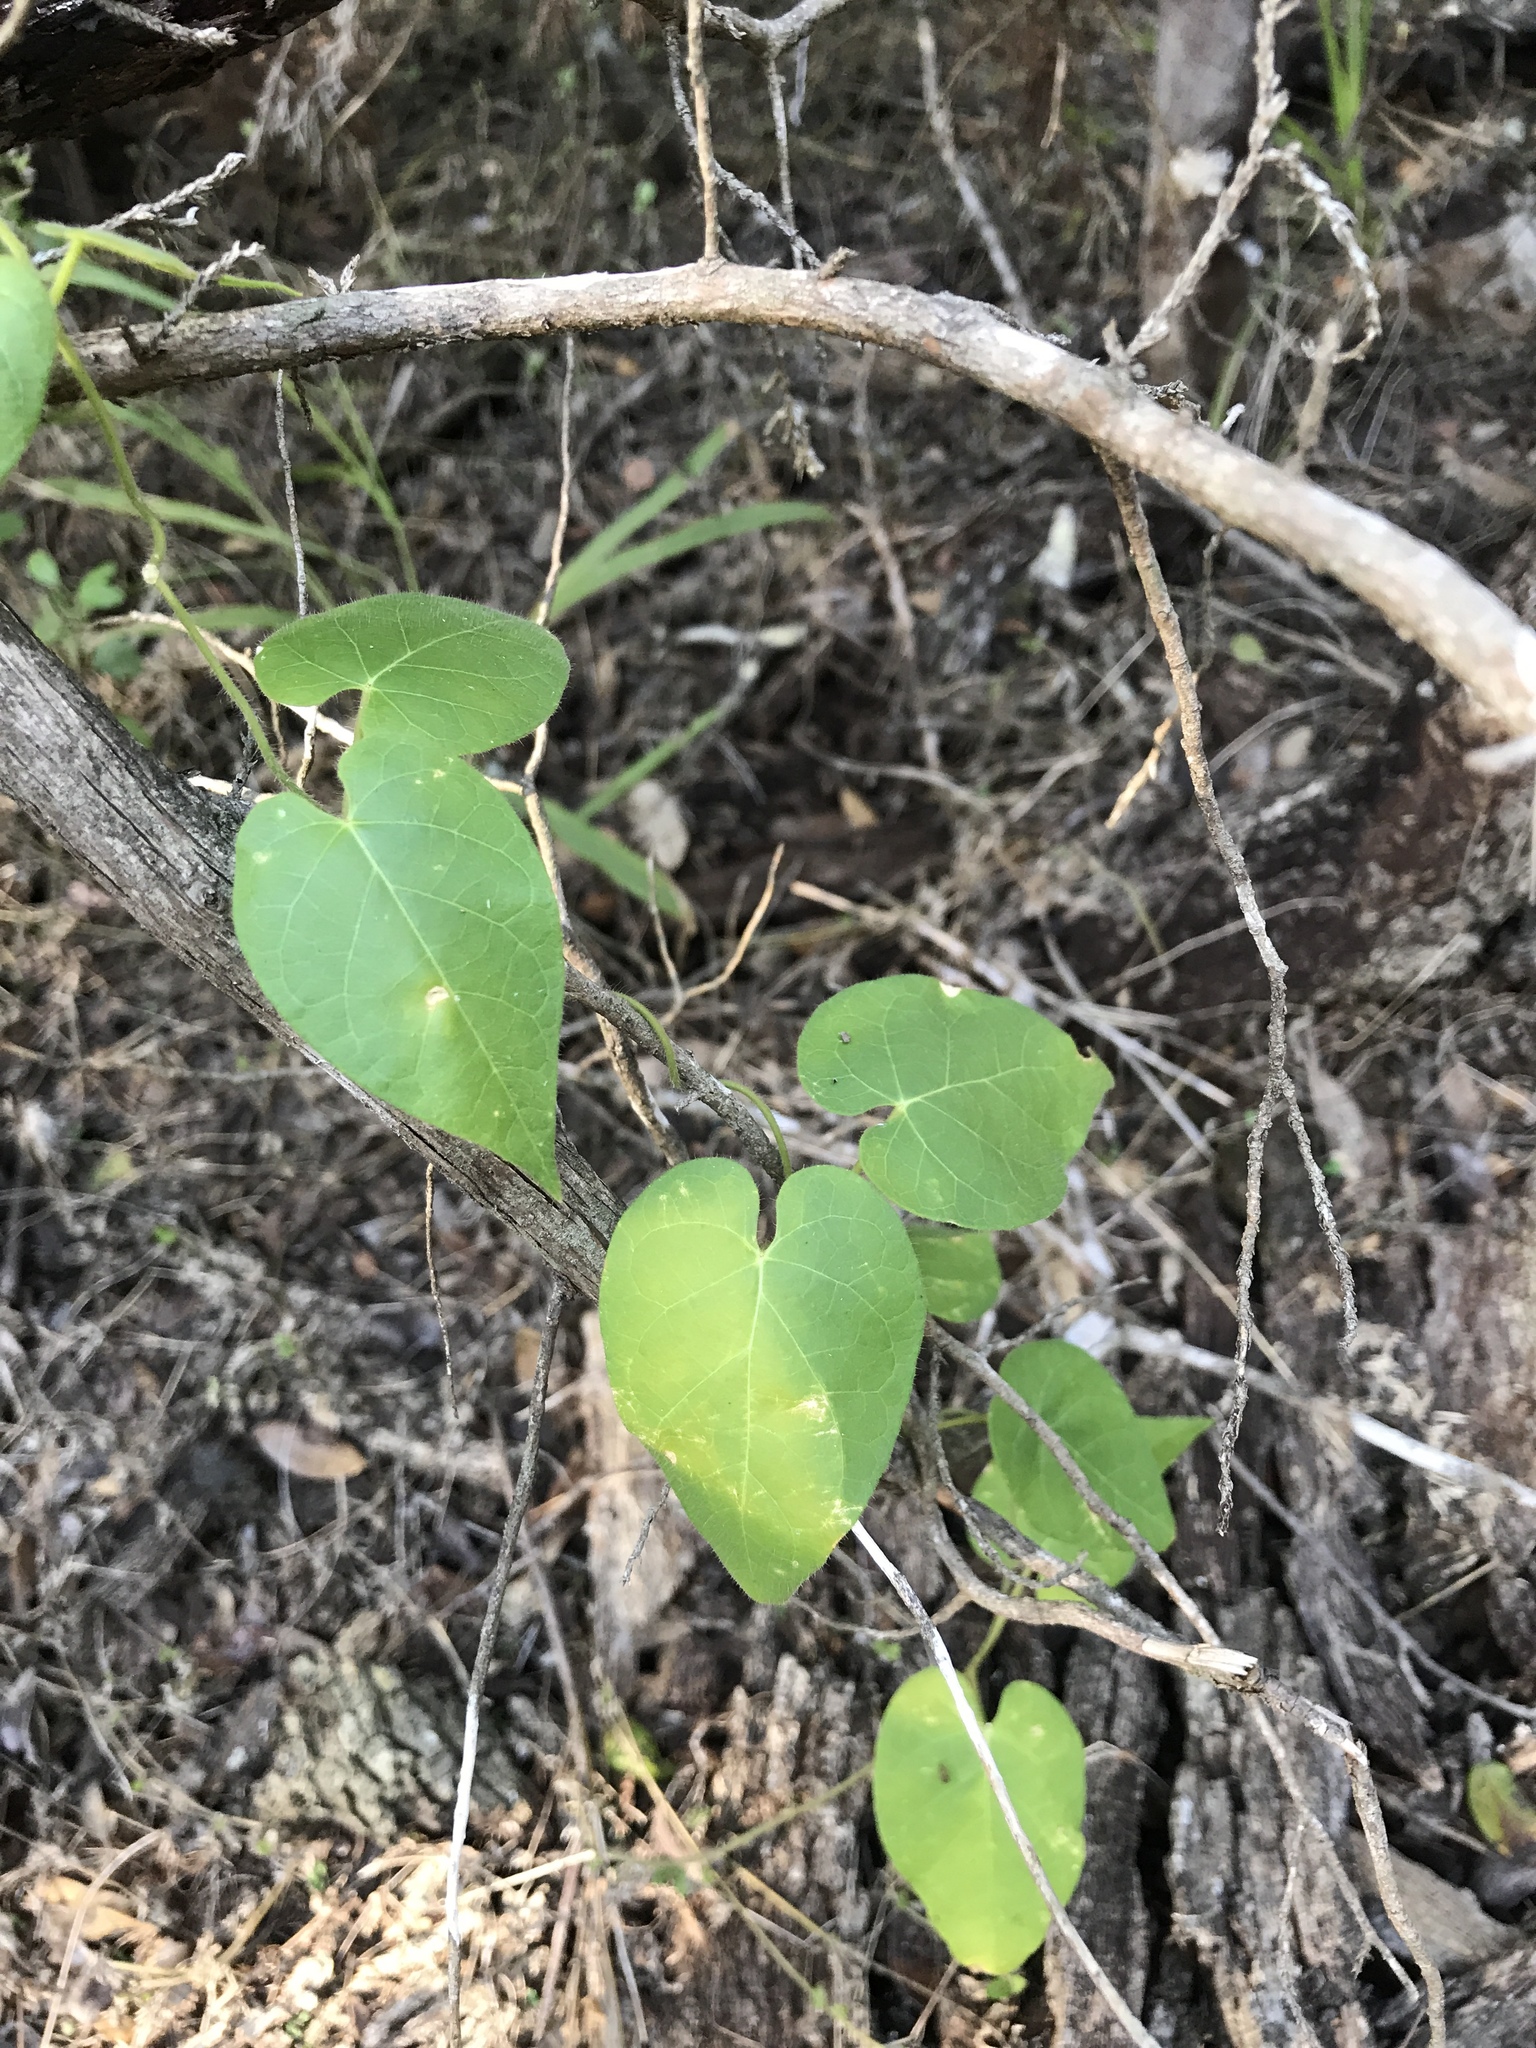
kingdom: Plantae
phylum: Tracheophyta
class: Magnoliopsida
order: Gentianales
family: Apocynaceae
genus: Dictyanthus
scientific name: Dictyanthus reticulatus
